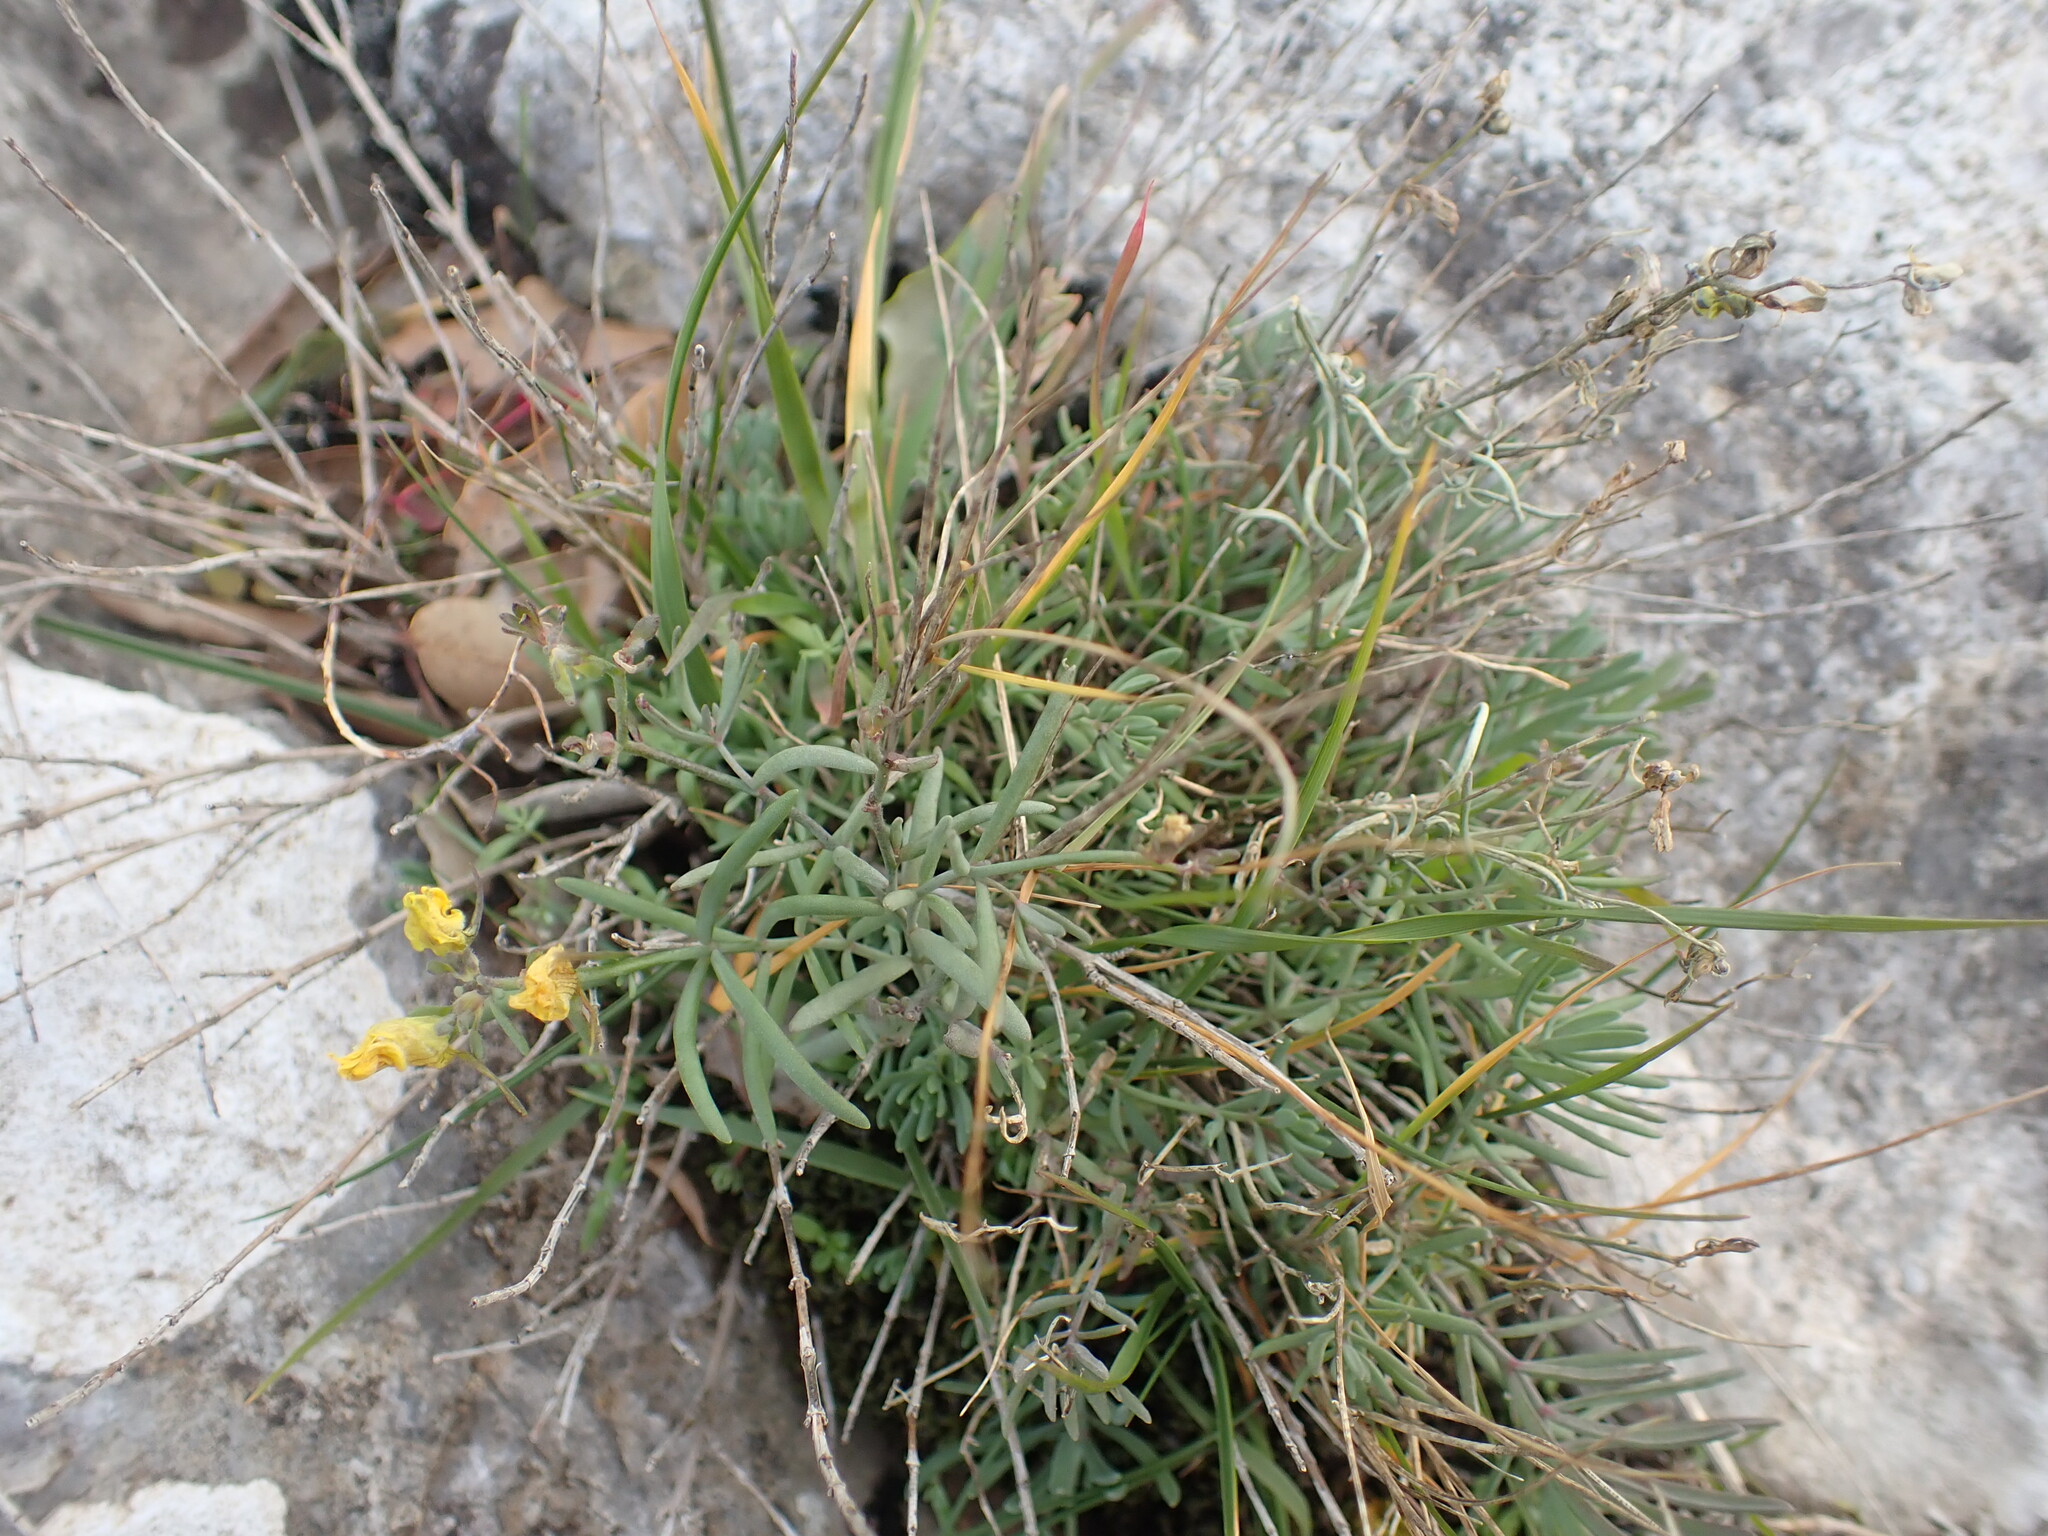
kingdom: Plantae
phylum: Tracheophyta
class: Magnoliopsida
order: Lamiales
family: Plantaginaceae
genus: Linaria
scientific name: Linaria supina
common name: Prostrate toadflax
